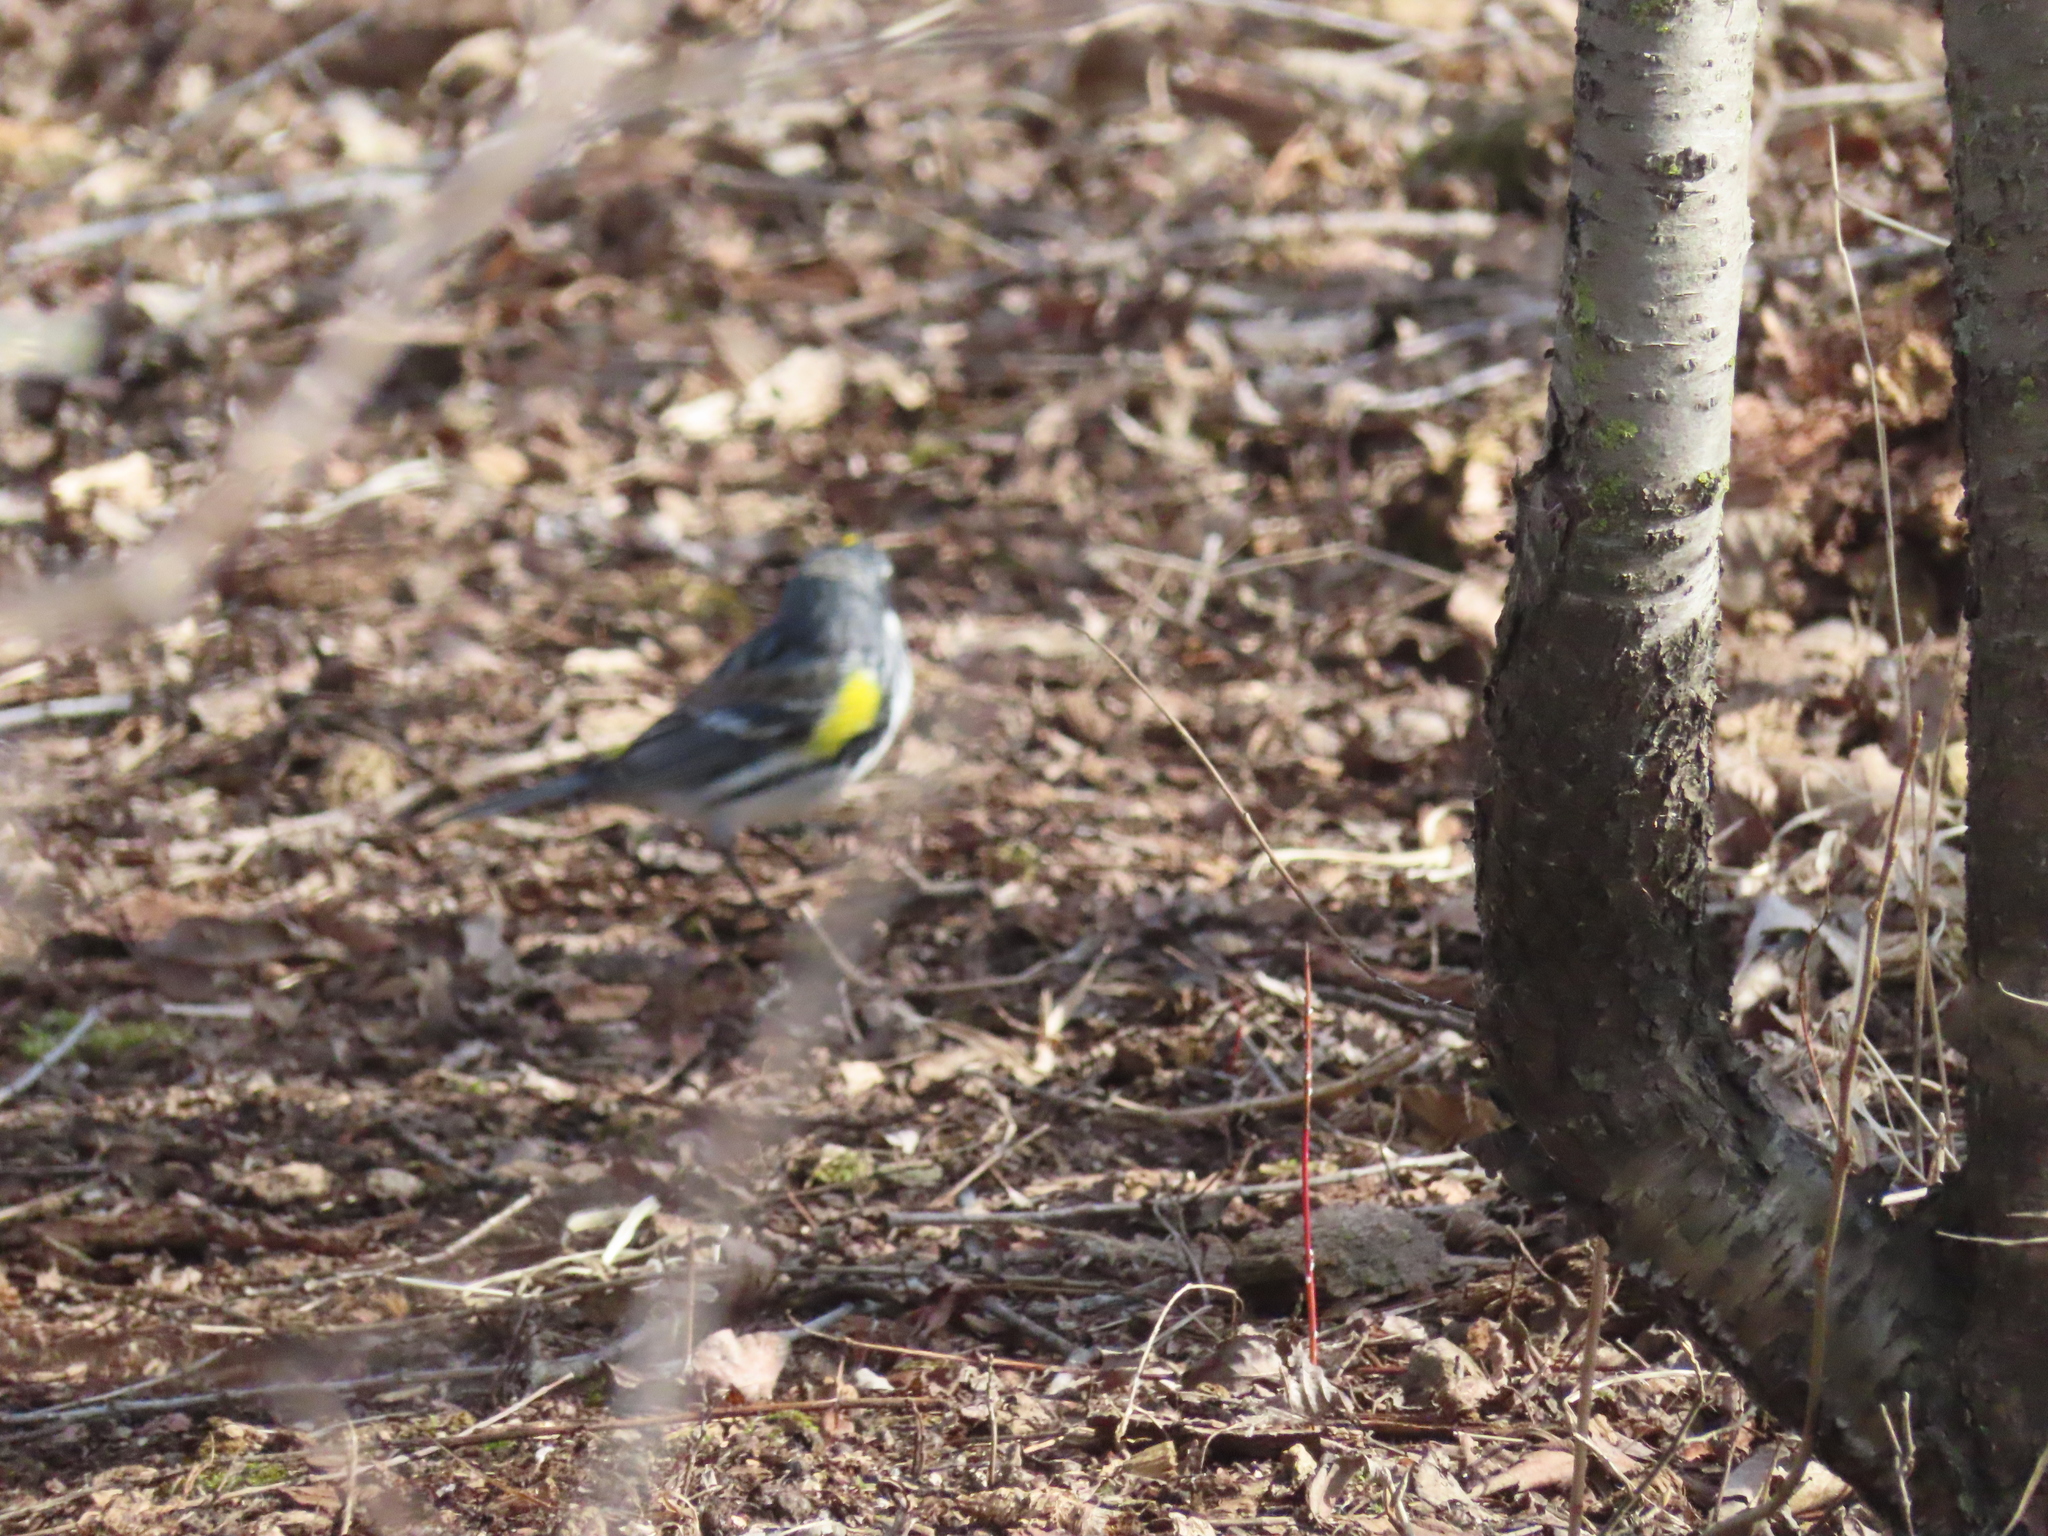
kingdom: Animalia
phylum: Chordata
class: Aves
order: Passeriformes
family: Parulidae
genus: Setophaga
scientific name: Setophaga coronata
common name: Myrtle warbler
